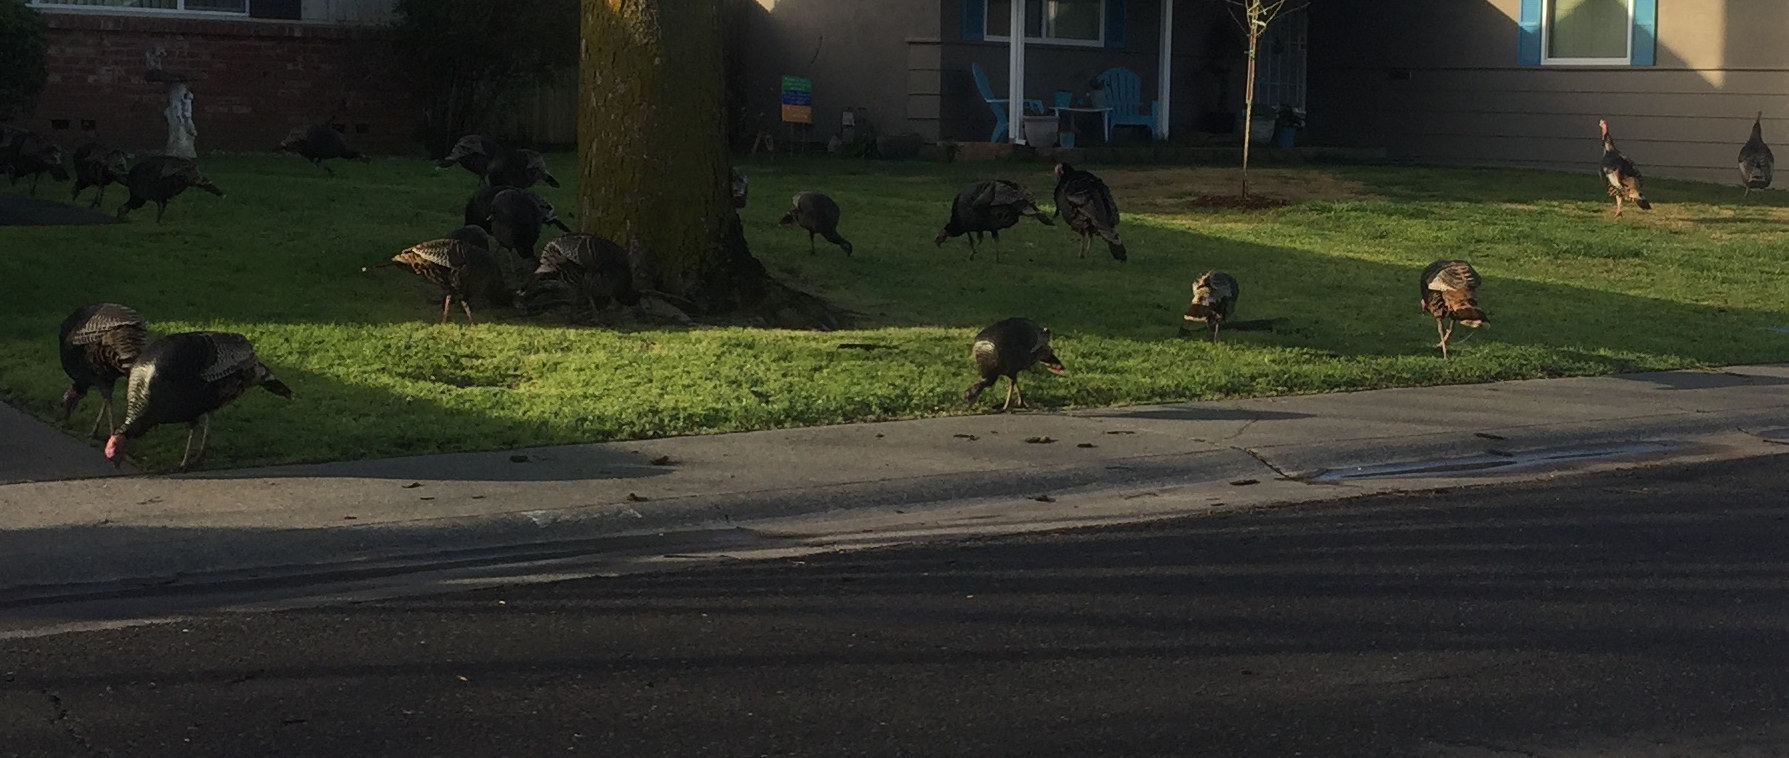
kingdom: Animalia
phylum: Chordata
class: Aves
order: Galliformes
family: Phasianidae
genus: Meleagris
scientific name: Meleagris gallopavo
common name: Wild turkey
